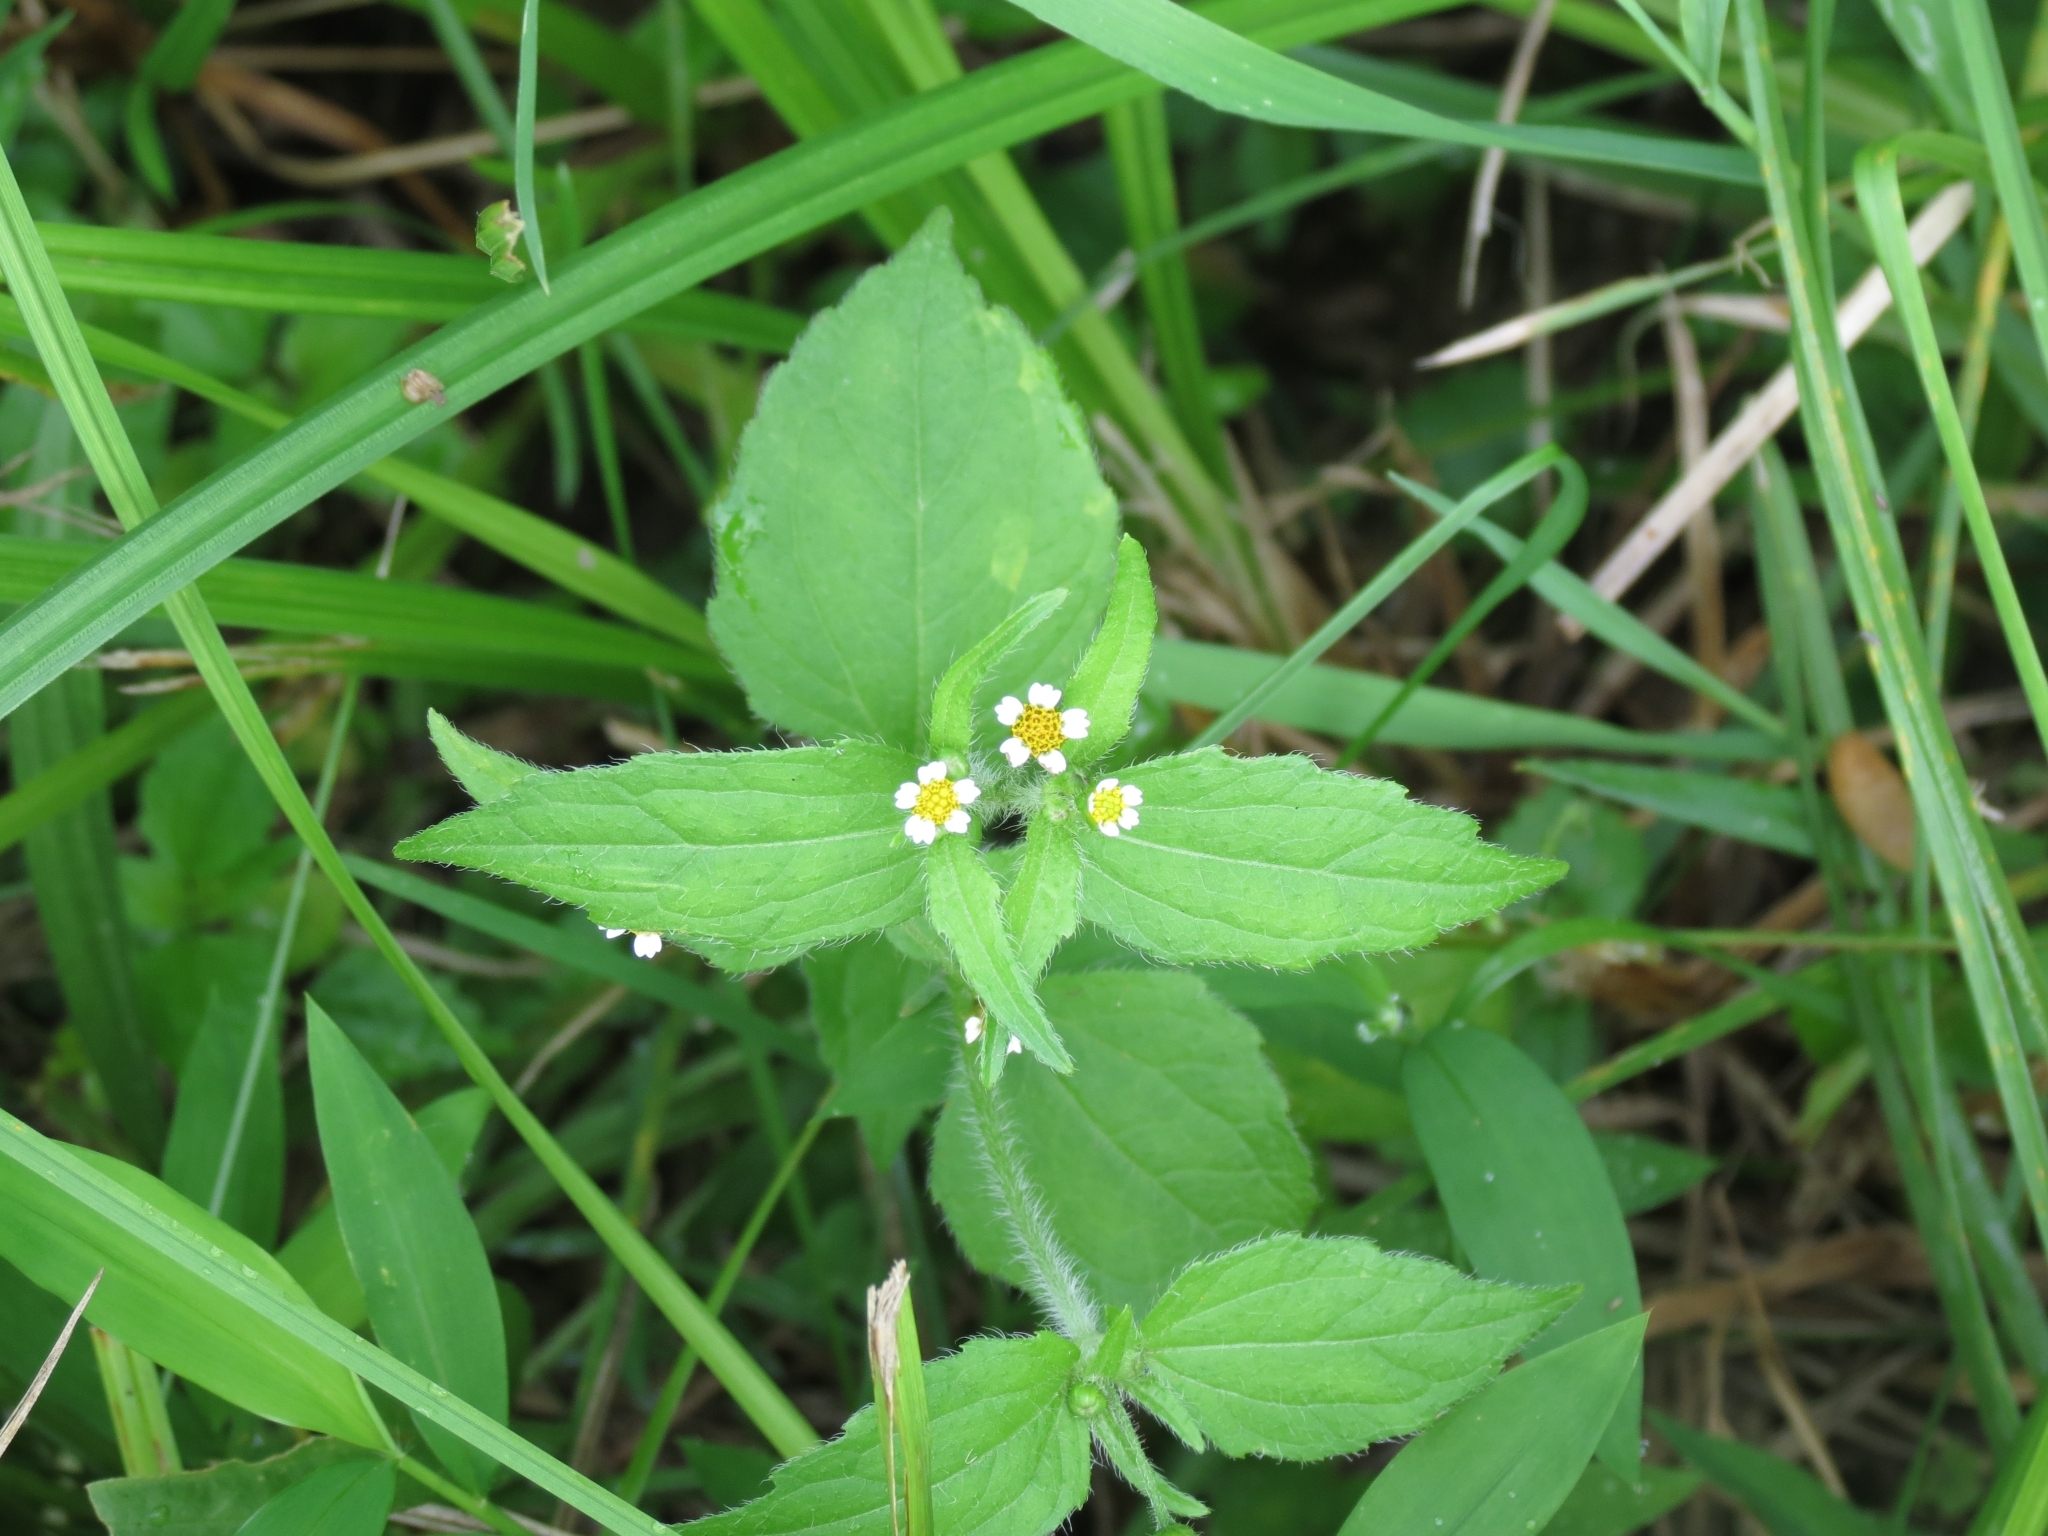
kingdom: Plantae
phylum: Tracheophyta
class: Magnoliopsida
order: Asterales
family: Asteraceae
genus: Galinsoga
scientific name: Galinsoga quadriradiata
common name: Shaggy soldier
